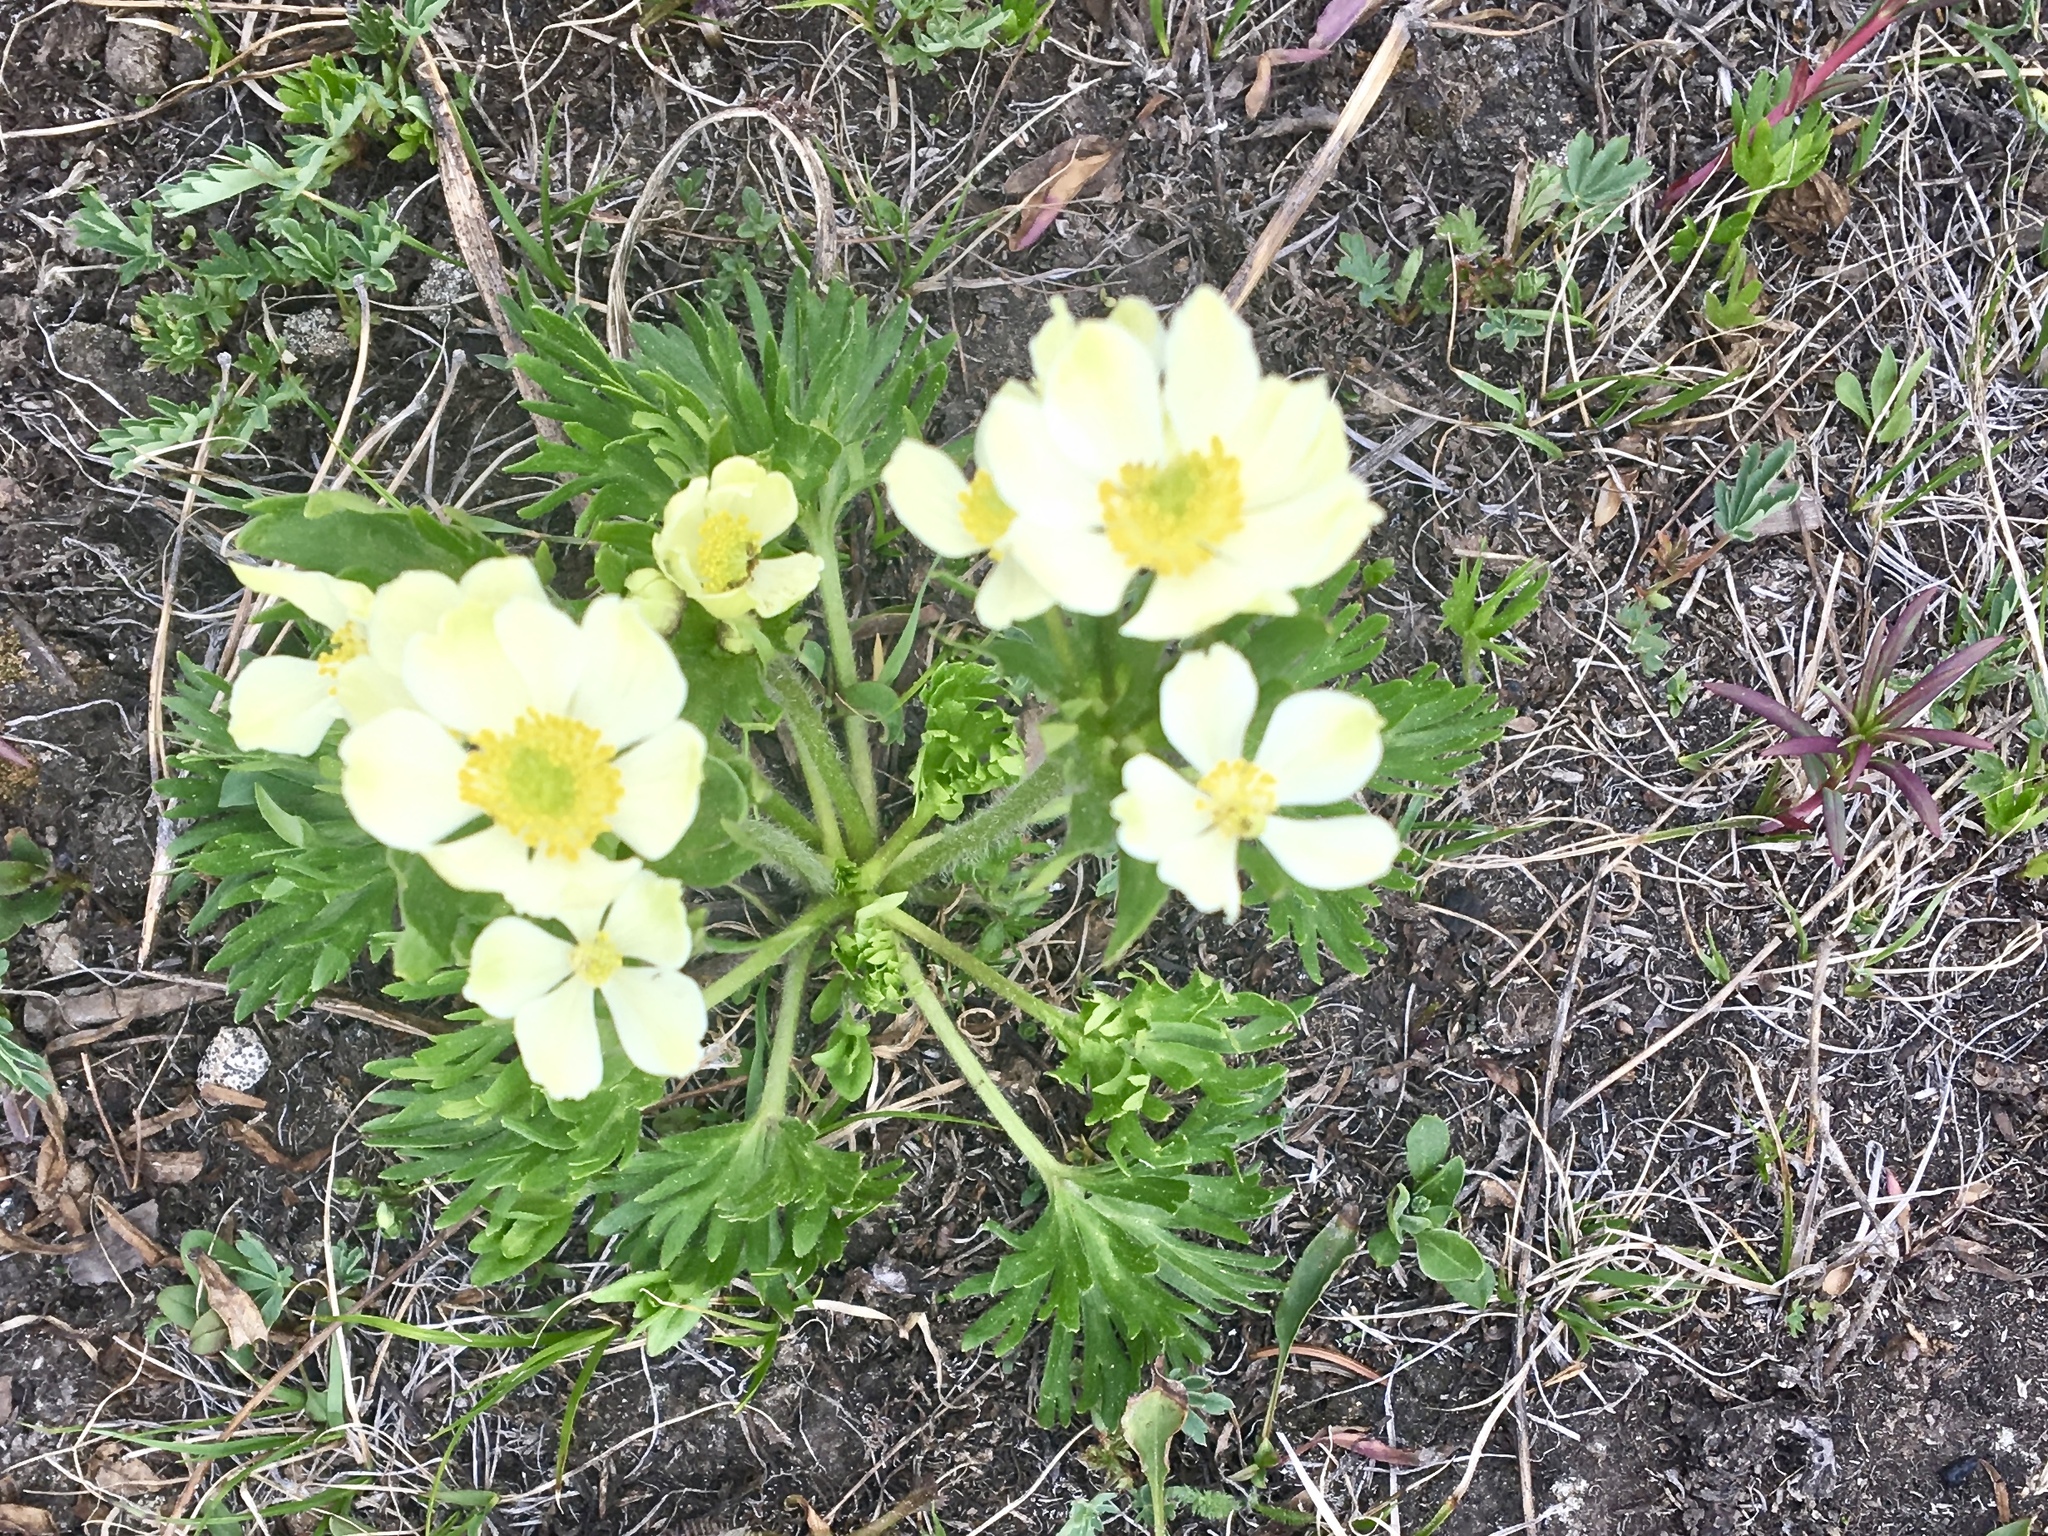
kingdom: Plantae
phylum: Tracheophyta
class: Magnoliopsida
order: Ranunculales
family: Ranunculaceae
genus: Anemonastrum
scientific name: Anemonastrum narcissiflorum
